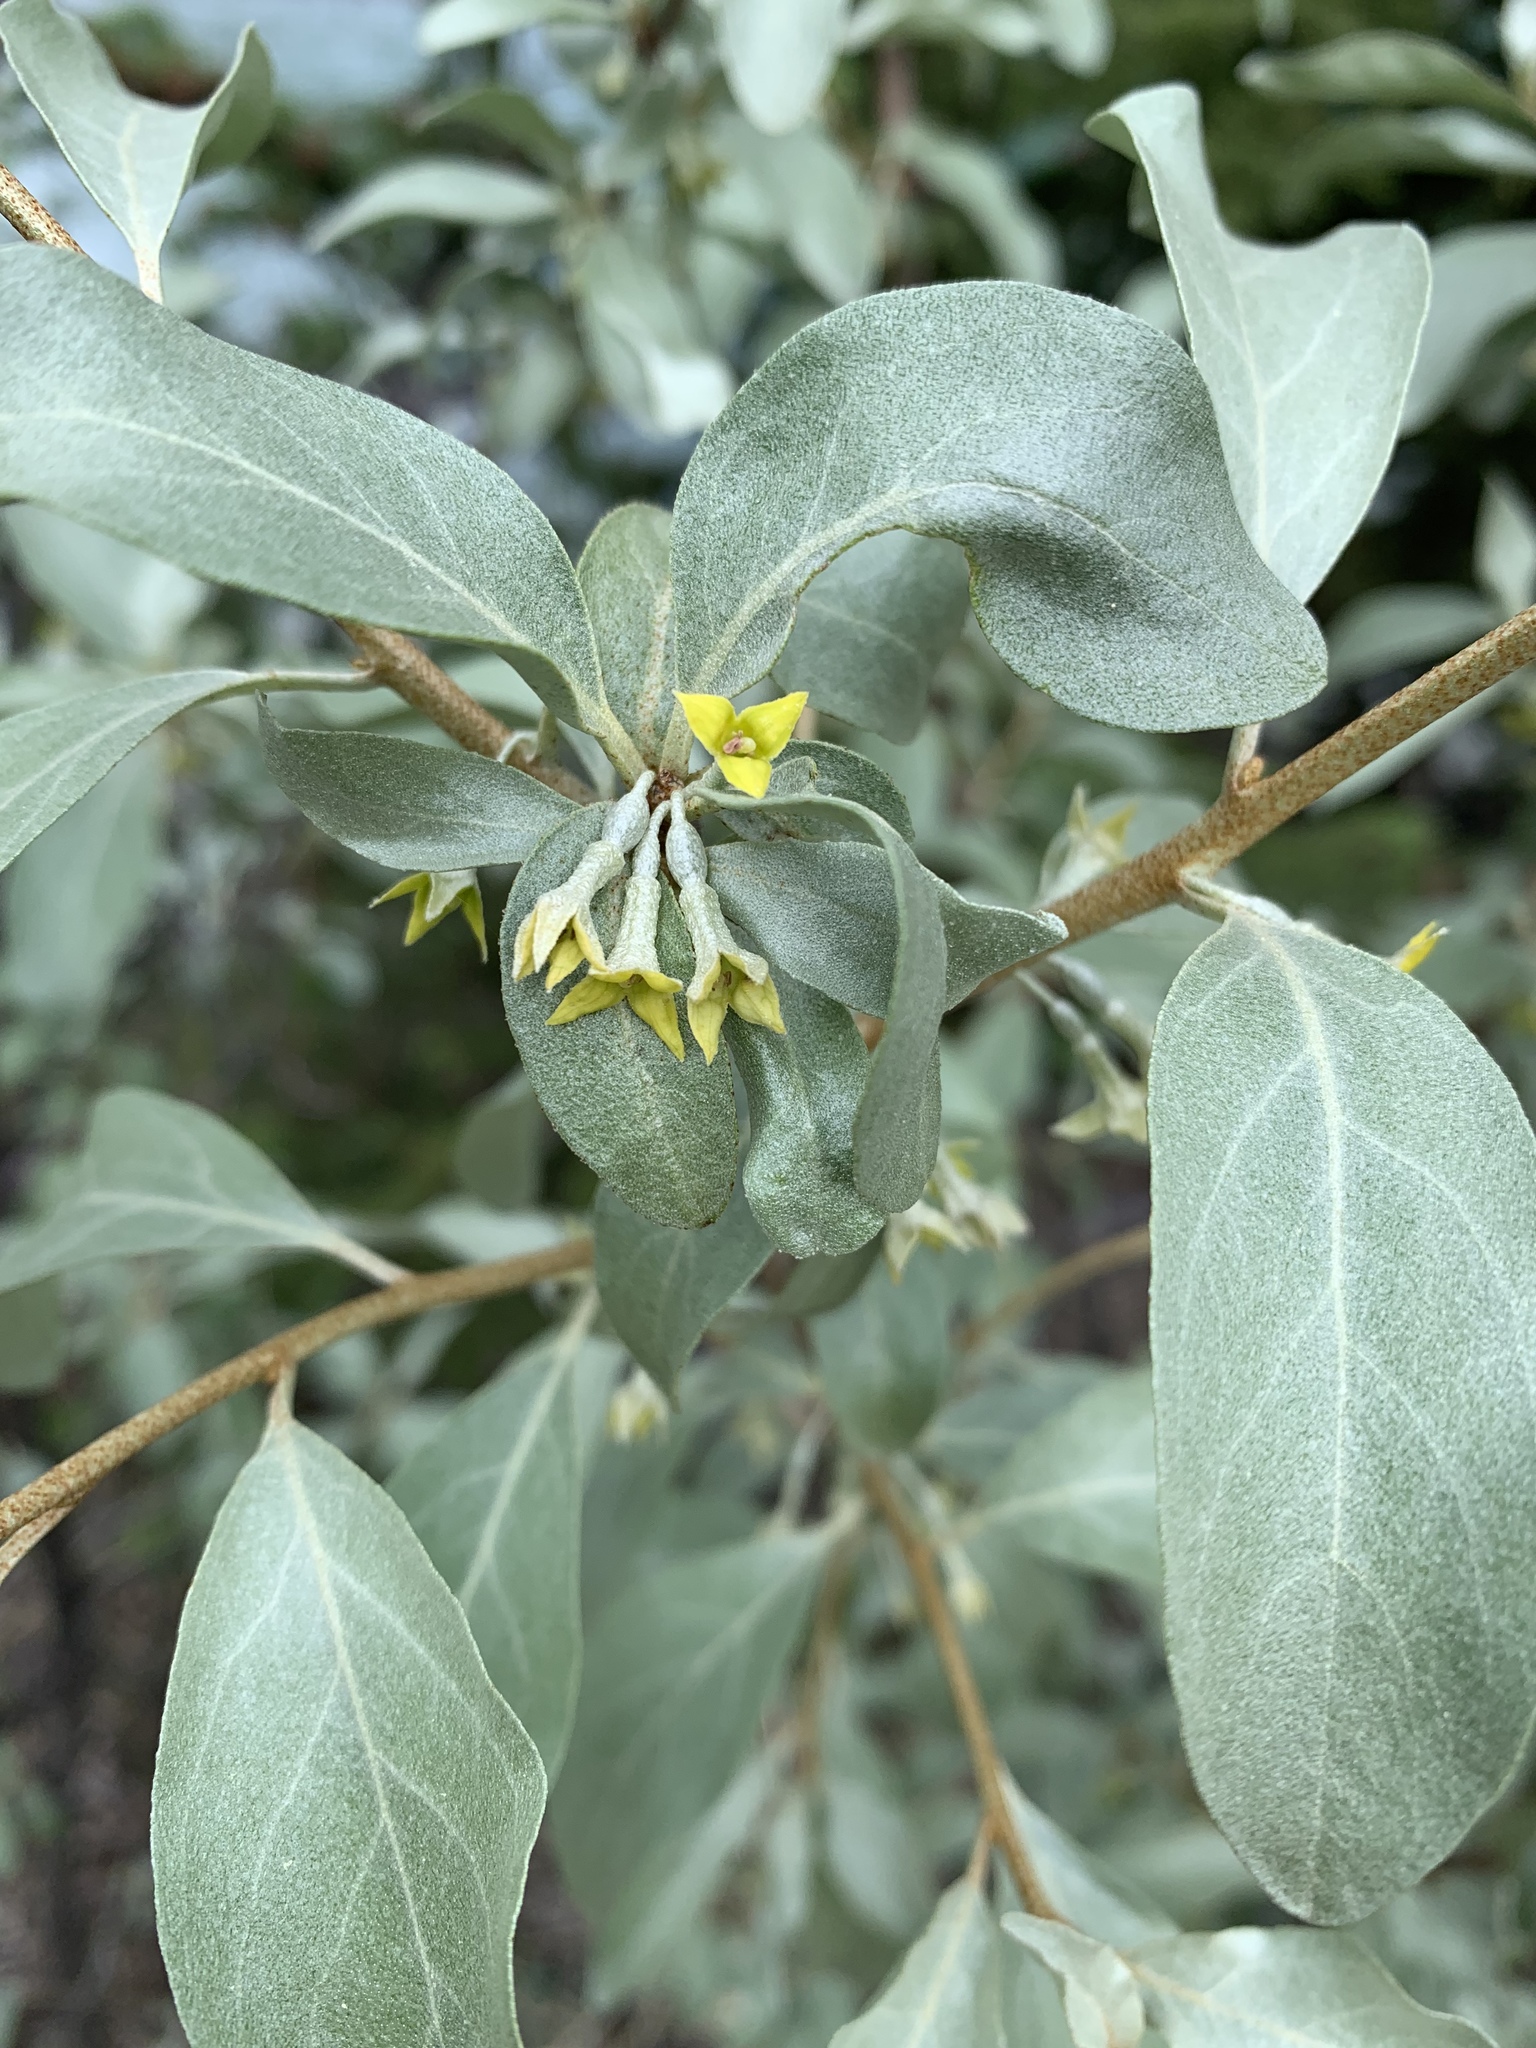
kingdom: Plantae
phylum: Tracheophyta
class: Magnoliopsida
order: Rosales
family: Elaeagnaceae
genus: Elaeagnus
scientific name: Elaeagnus commutata
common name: Silverberry
